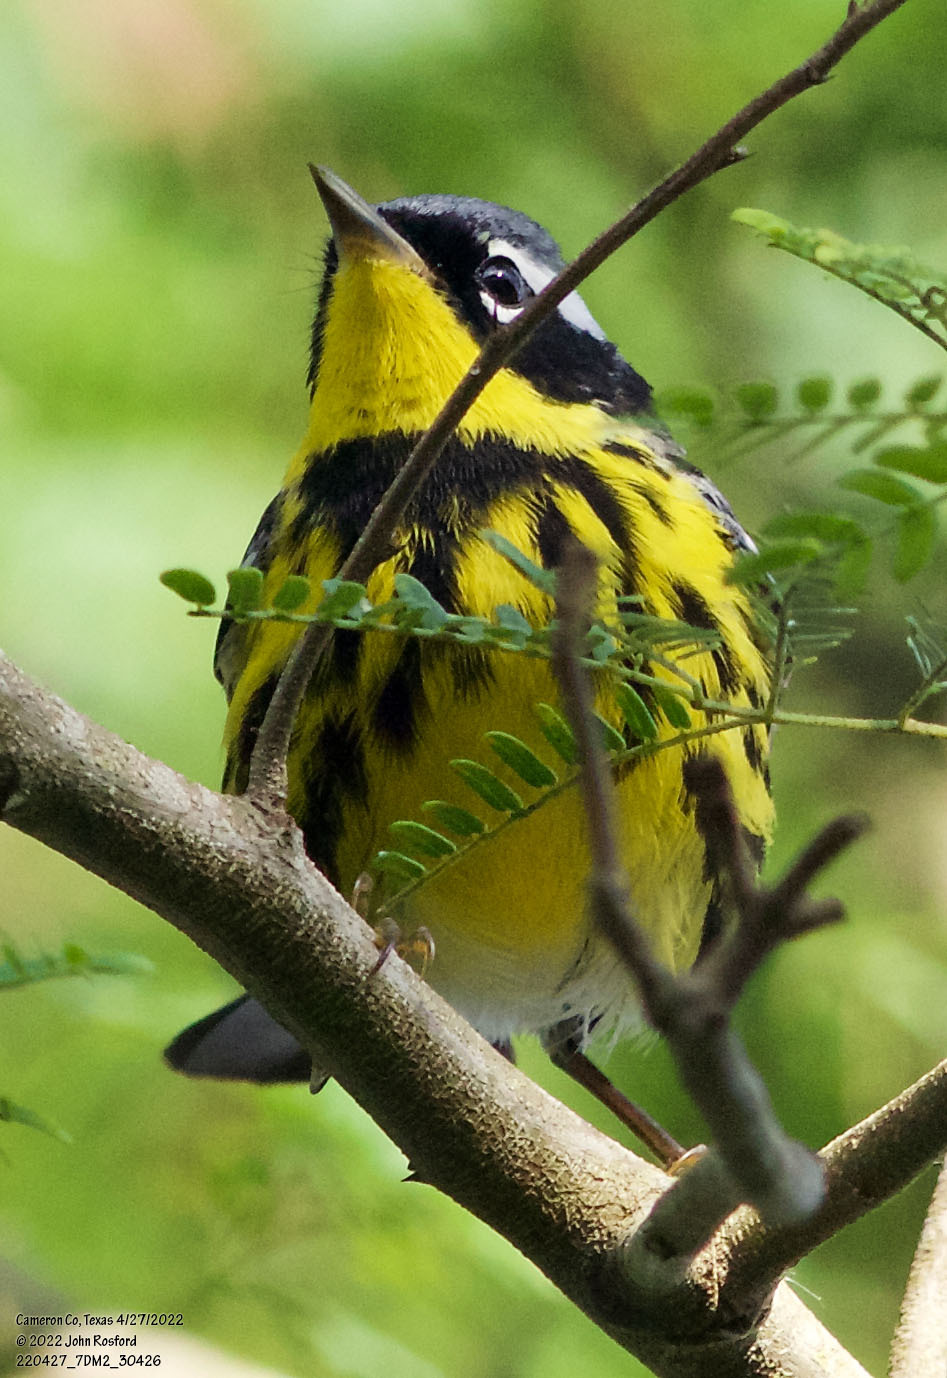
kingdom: Animalia
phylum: Chordata
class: Aves
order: Passeriformes
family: Parulidae
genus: Setophaga
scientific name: Setophaga magnolia
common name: Magnolia warbler
